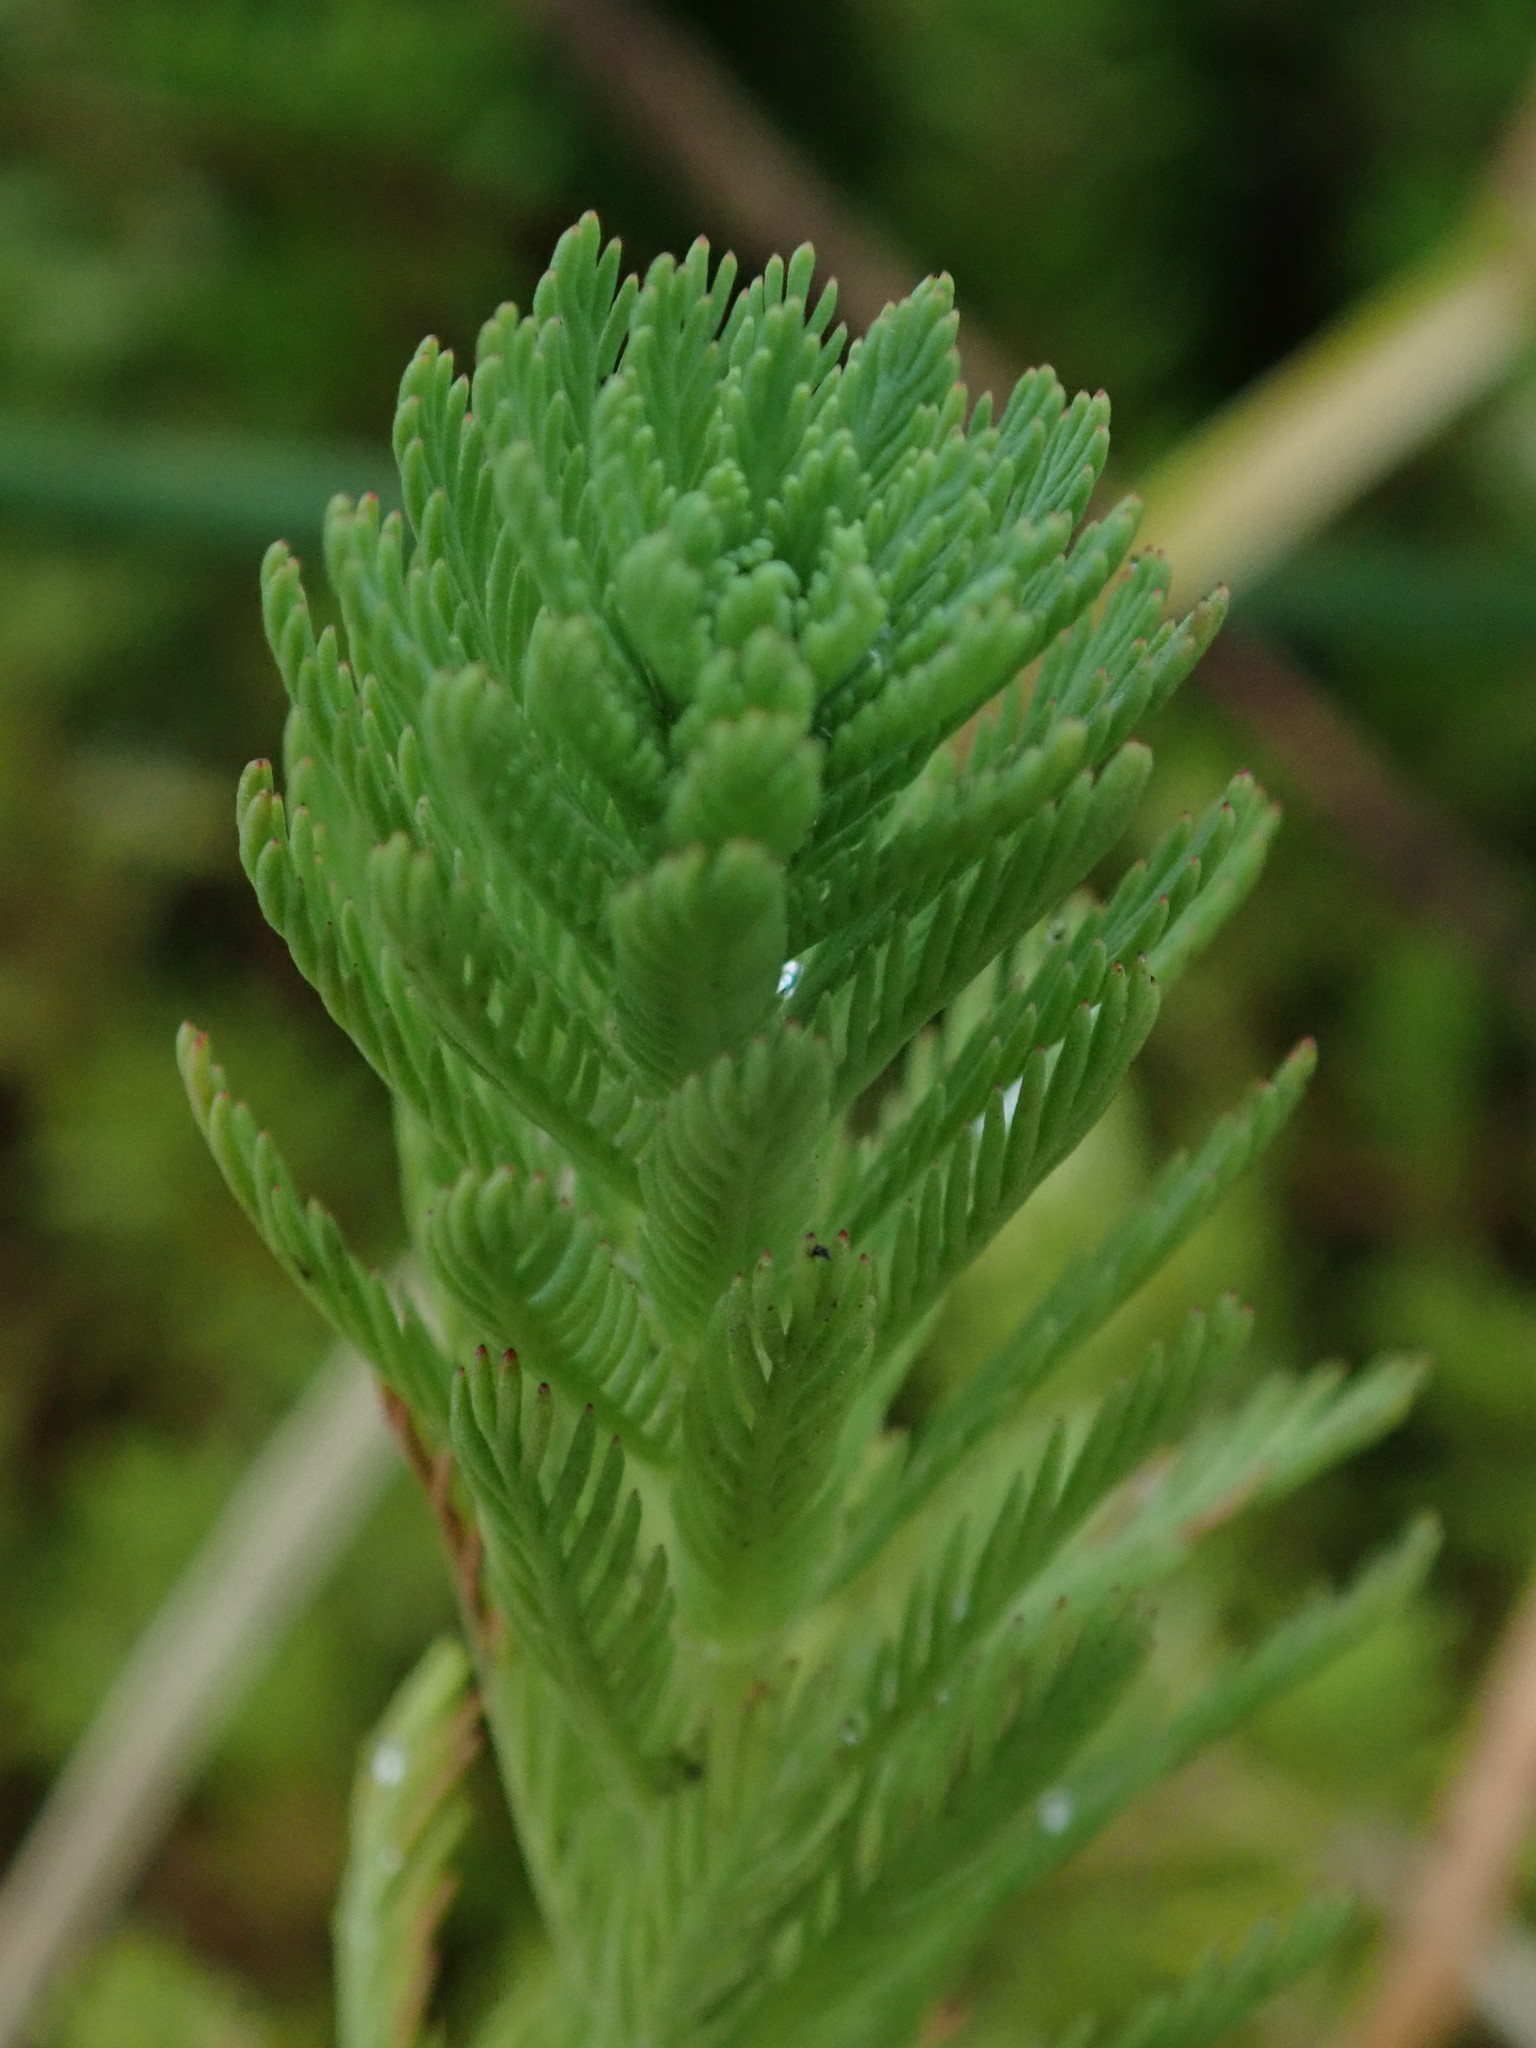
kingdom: Plantae
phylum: Tracheophyta
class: Magnoliopsida
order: Saxifragales
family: Haloragaceae
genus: Myriophyllum
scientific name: Myriophyllum aquaticum
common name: Parrot's feather
